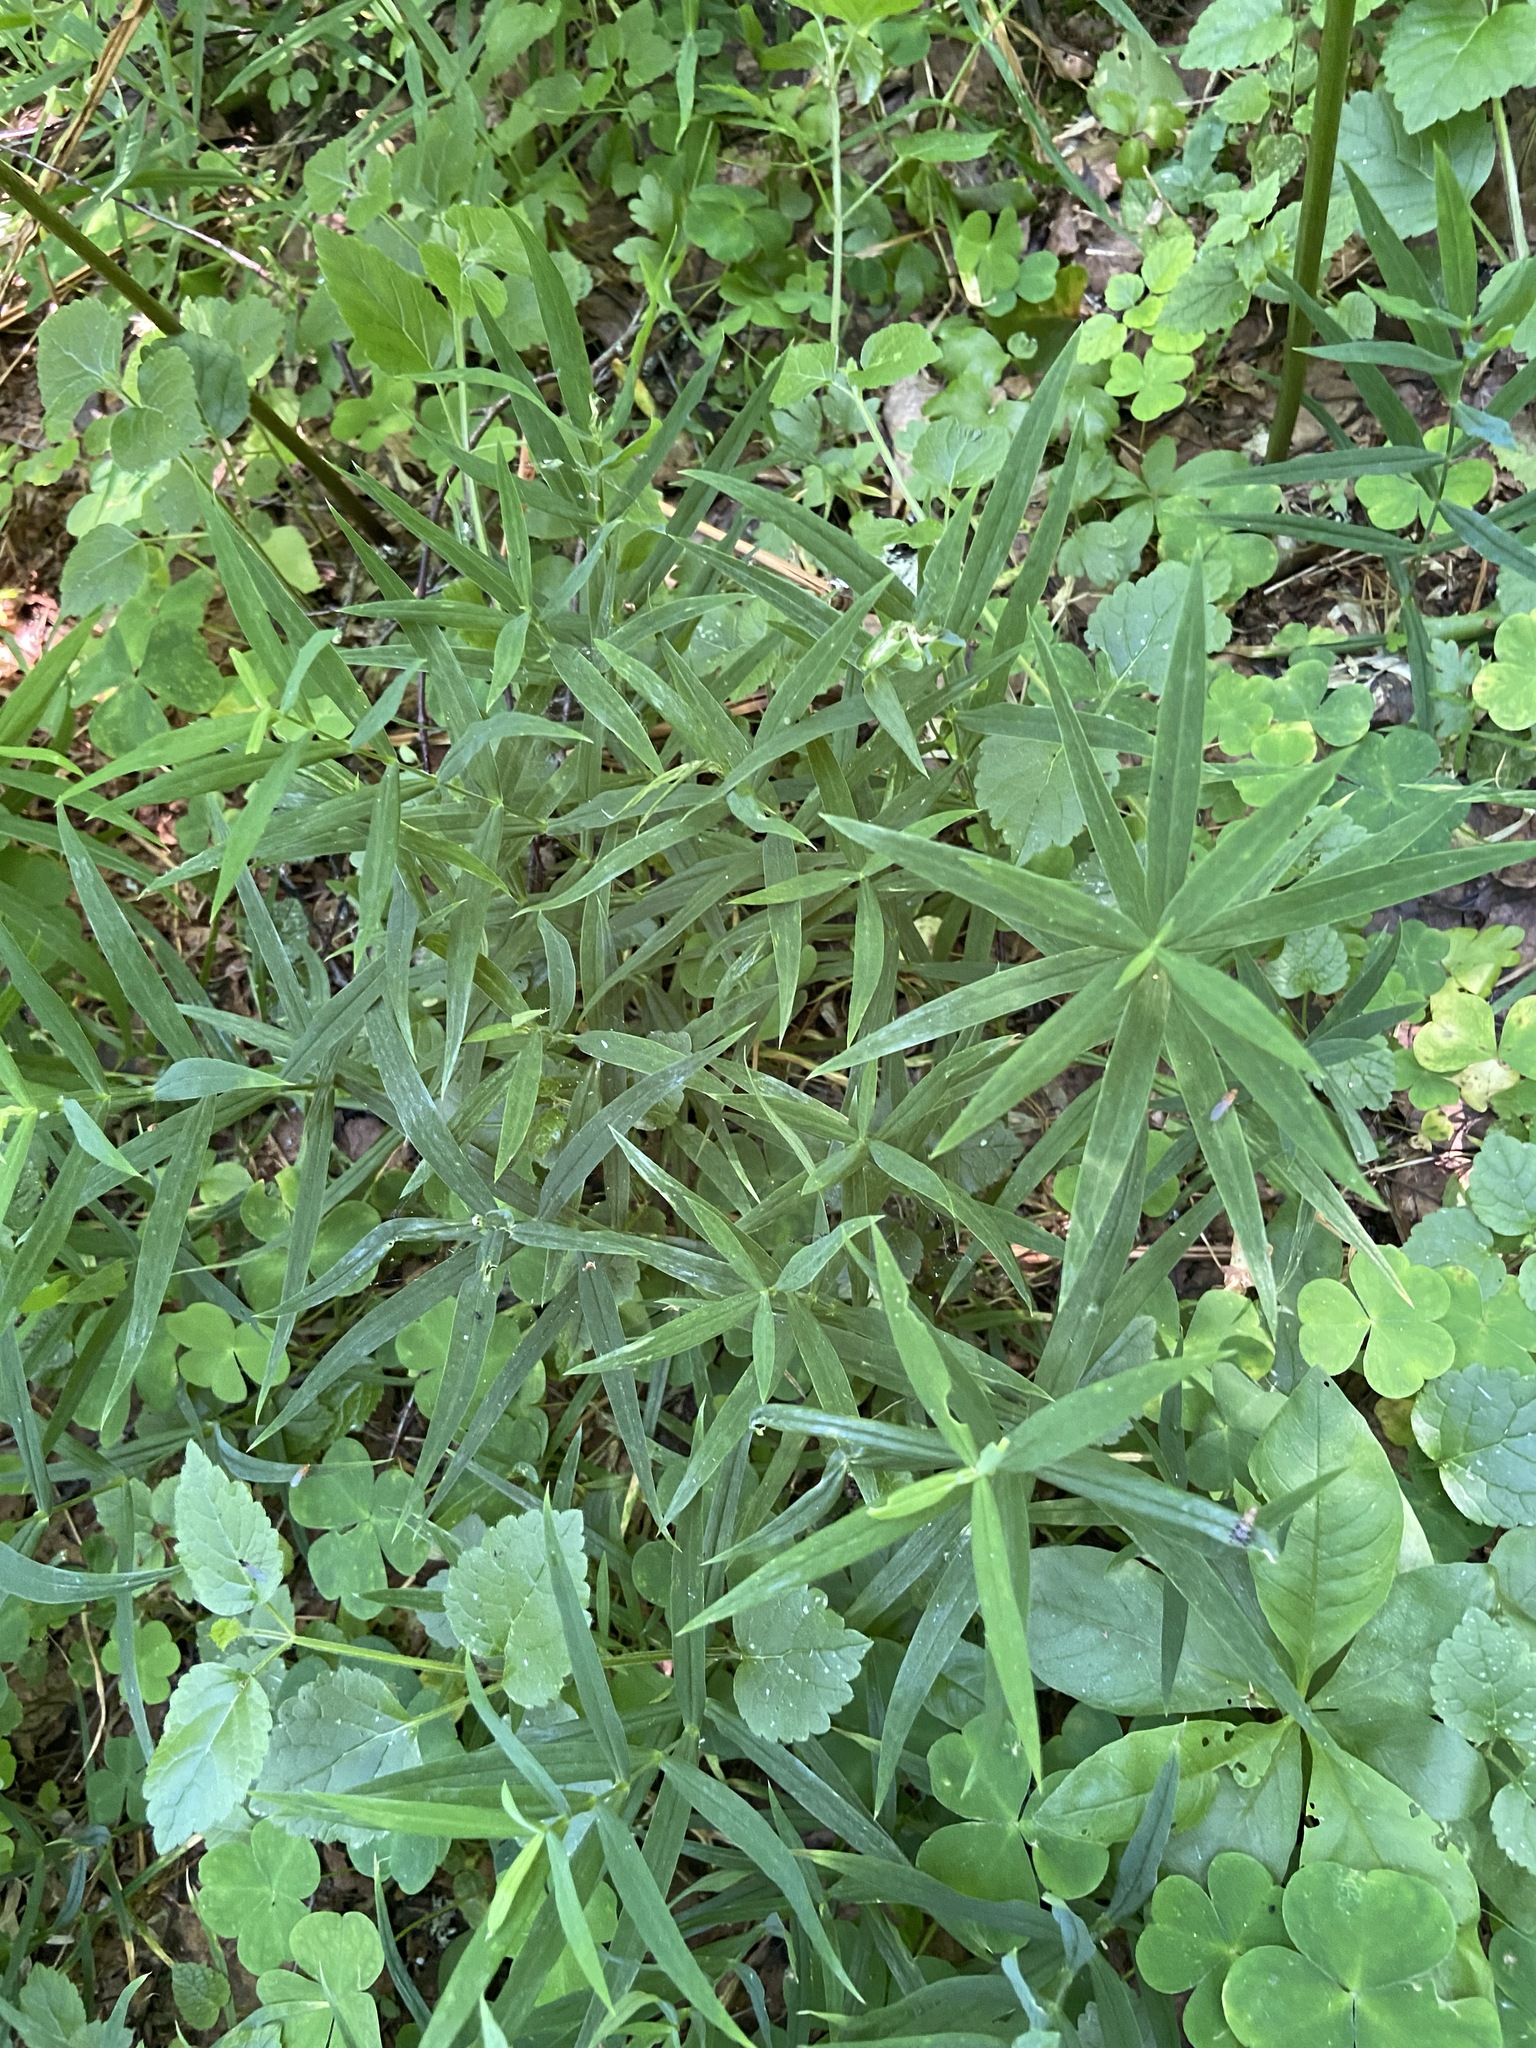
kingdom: Plantae
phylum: Tracheophyta
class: Magnoliopsida
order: Caryophyllales
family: Caryophyllaceae
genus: Rabelera
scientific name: Rabelera holostea
